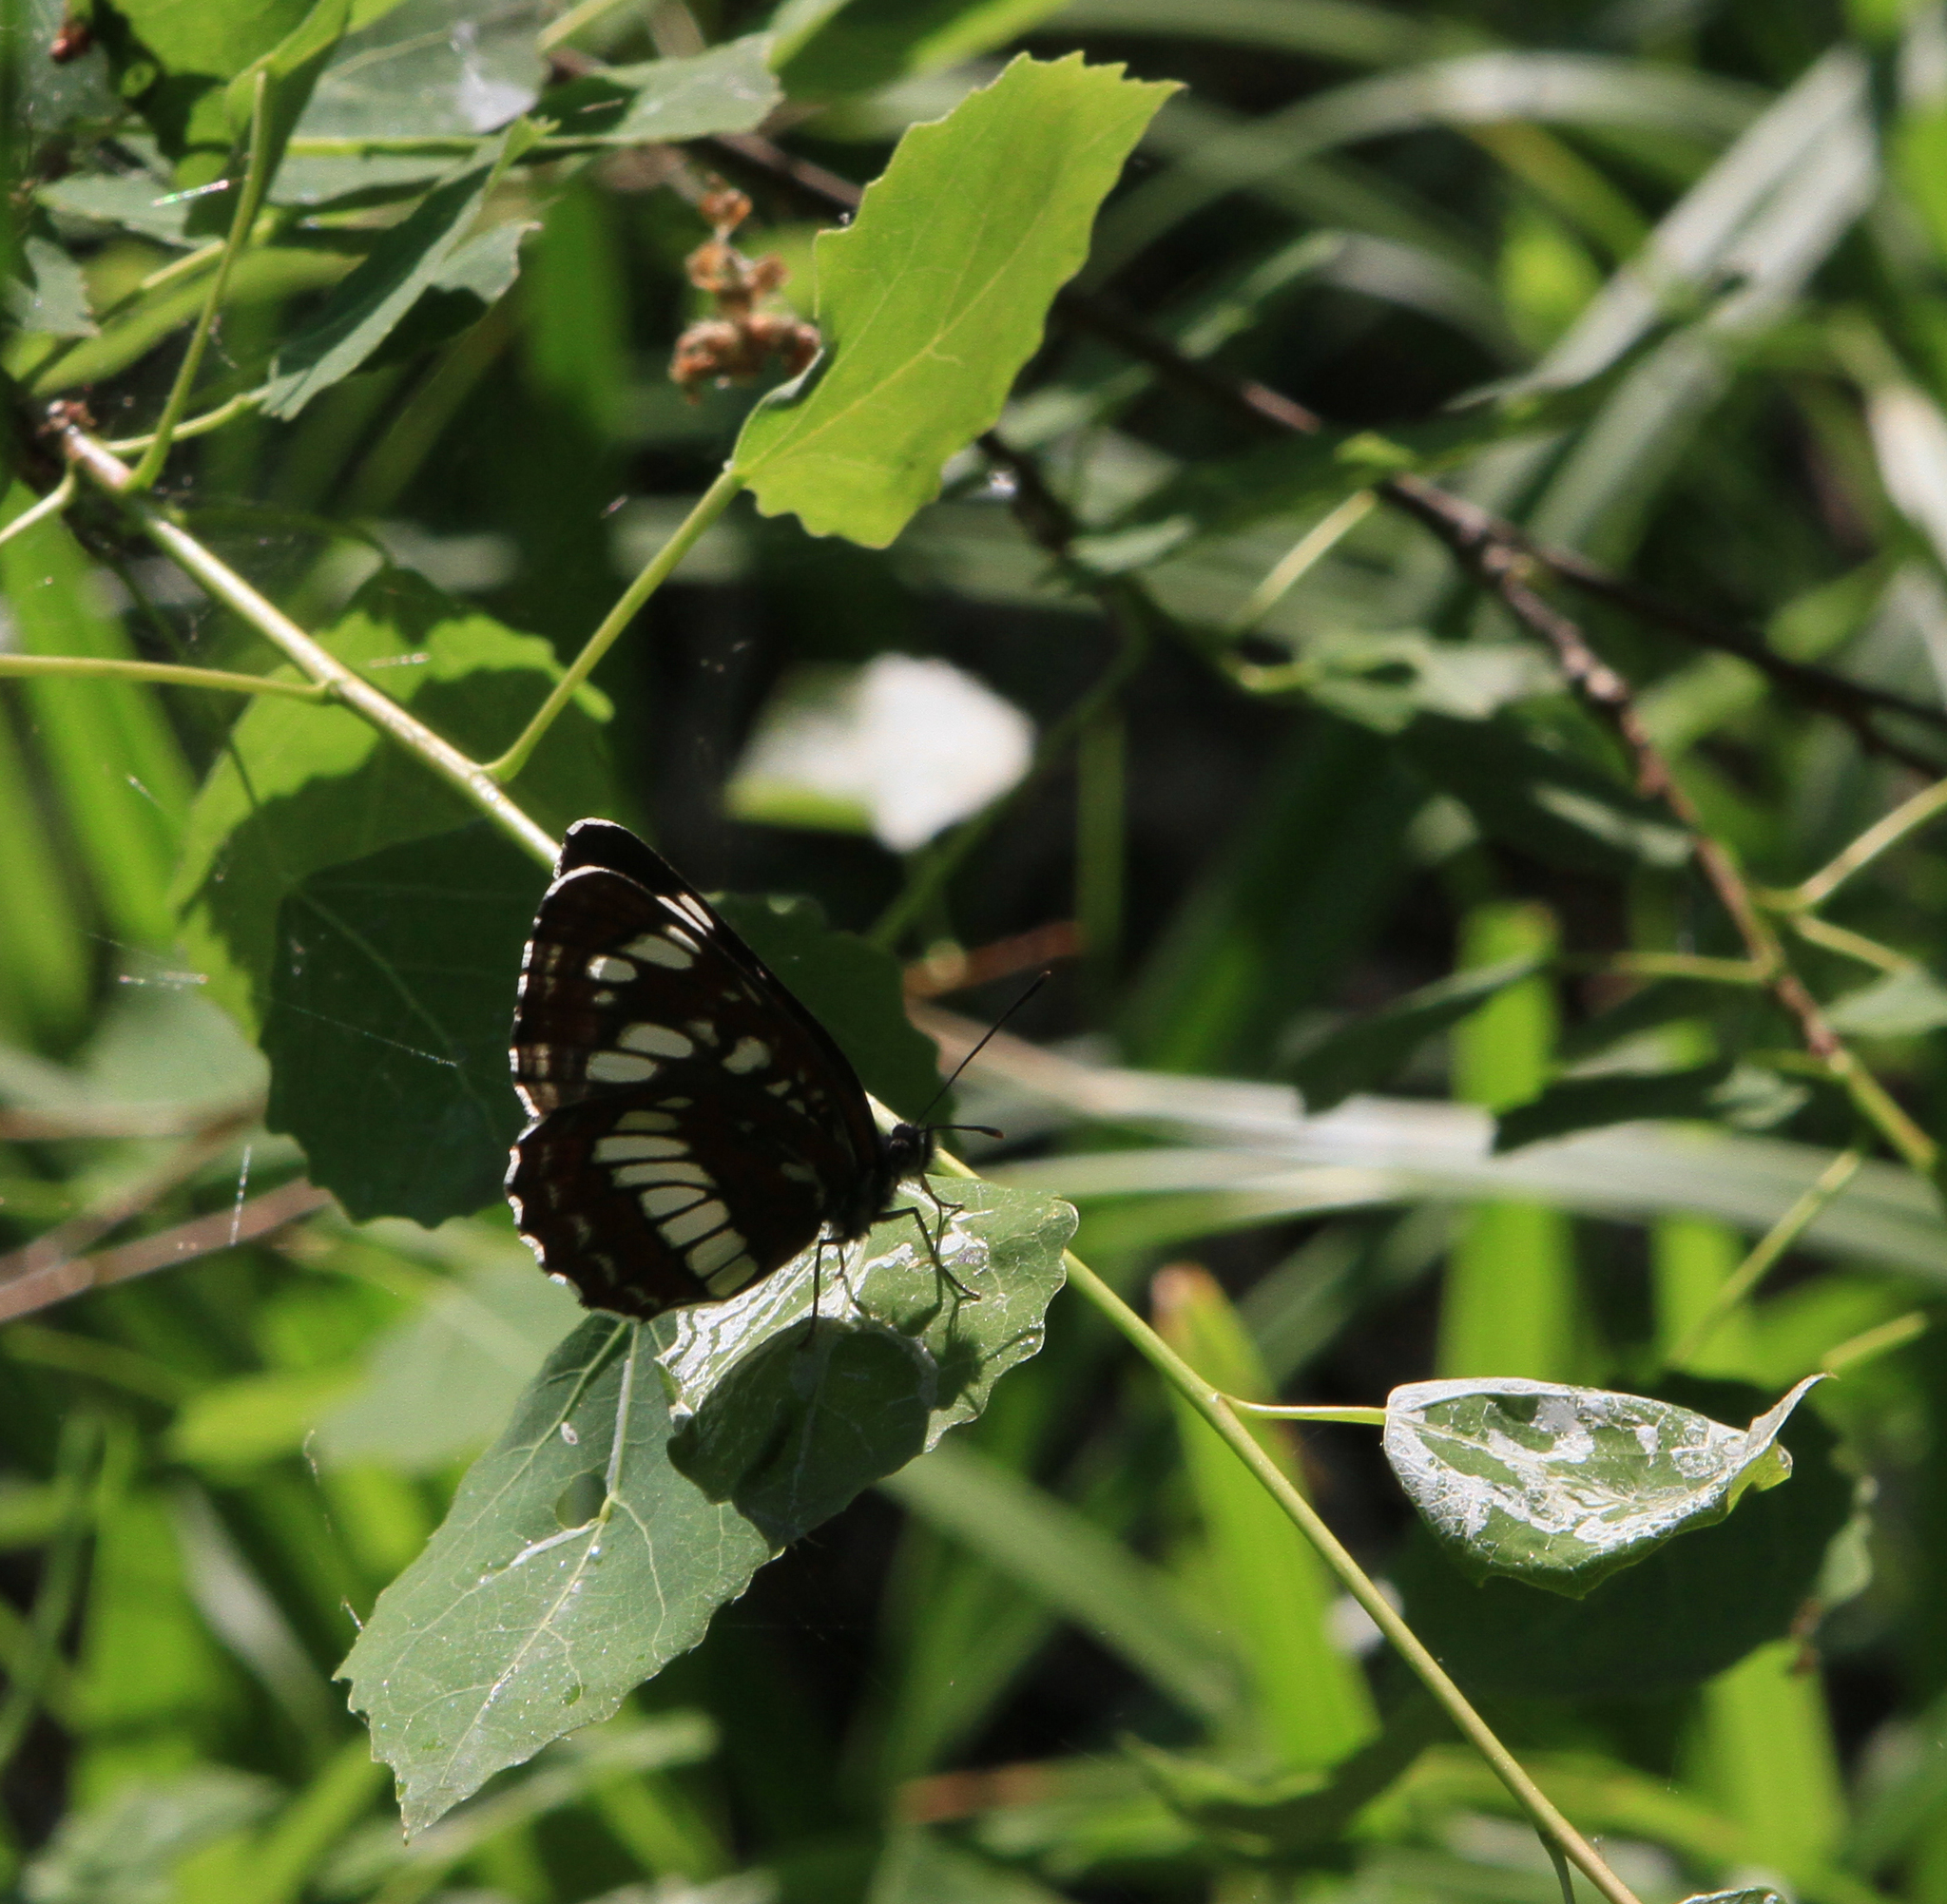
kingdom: Plantae
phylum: Tracheophyta
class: Magnoliopsida
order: Malpighiales
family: Salicaceae
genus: Populus
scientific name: Populus tremula
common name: European aspen
